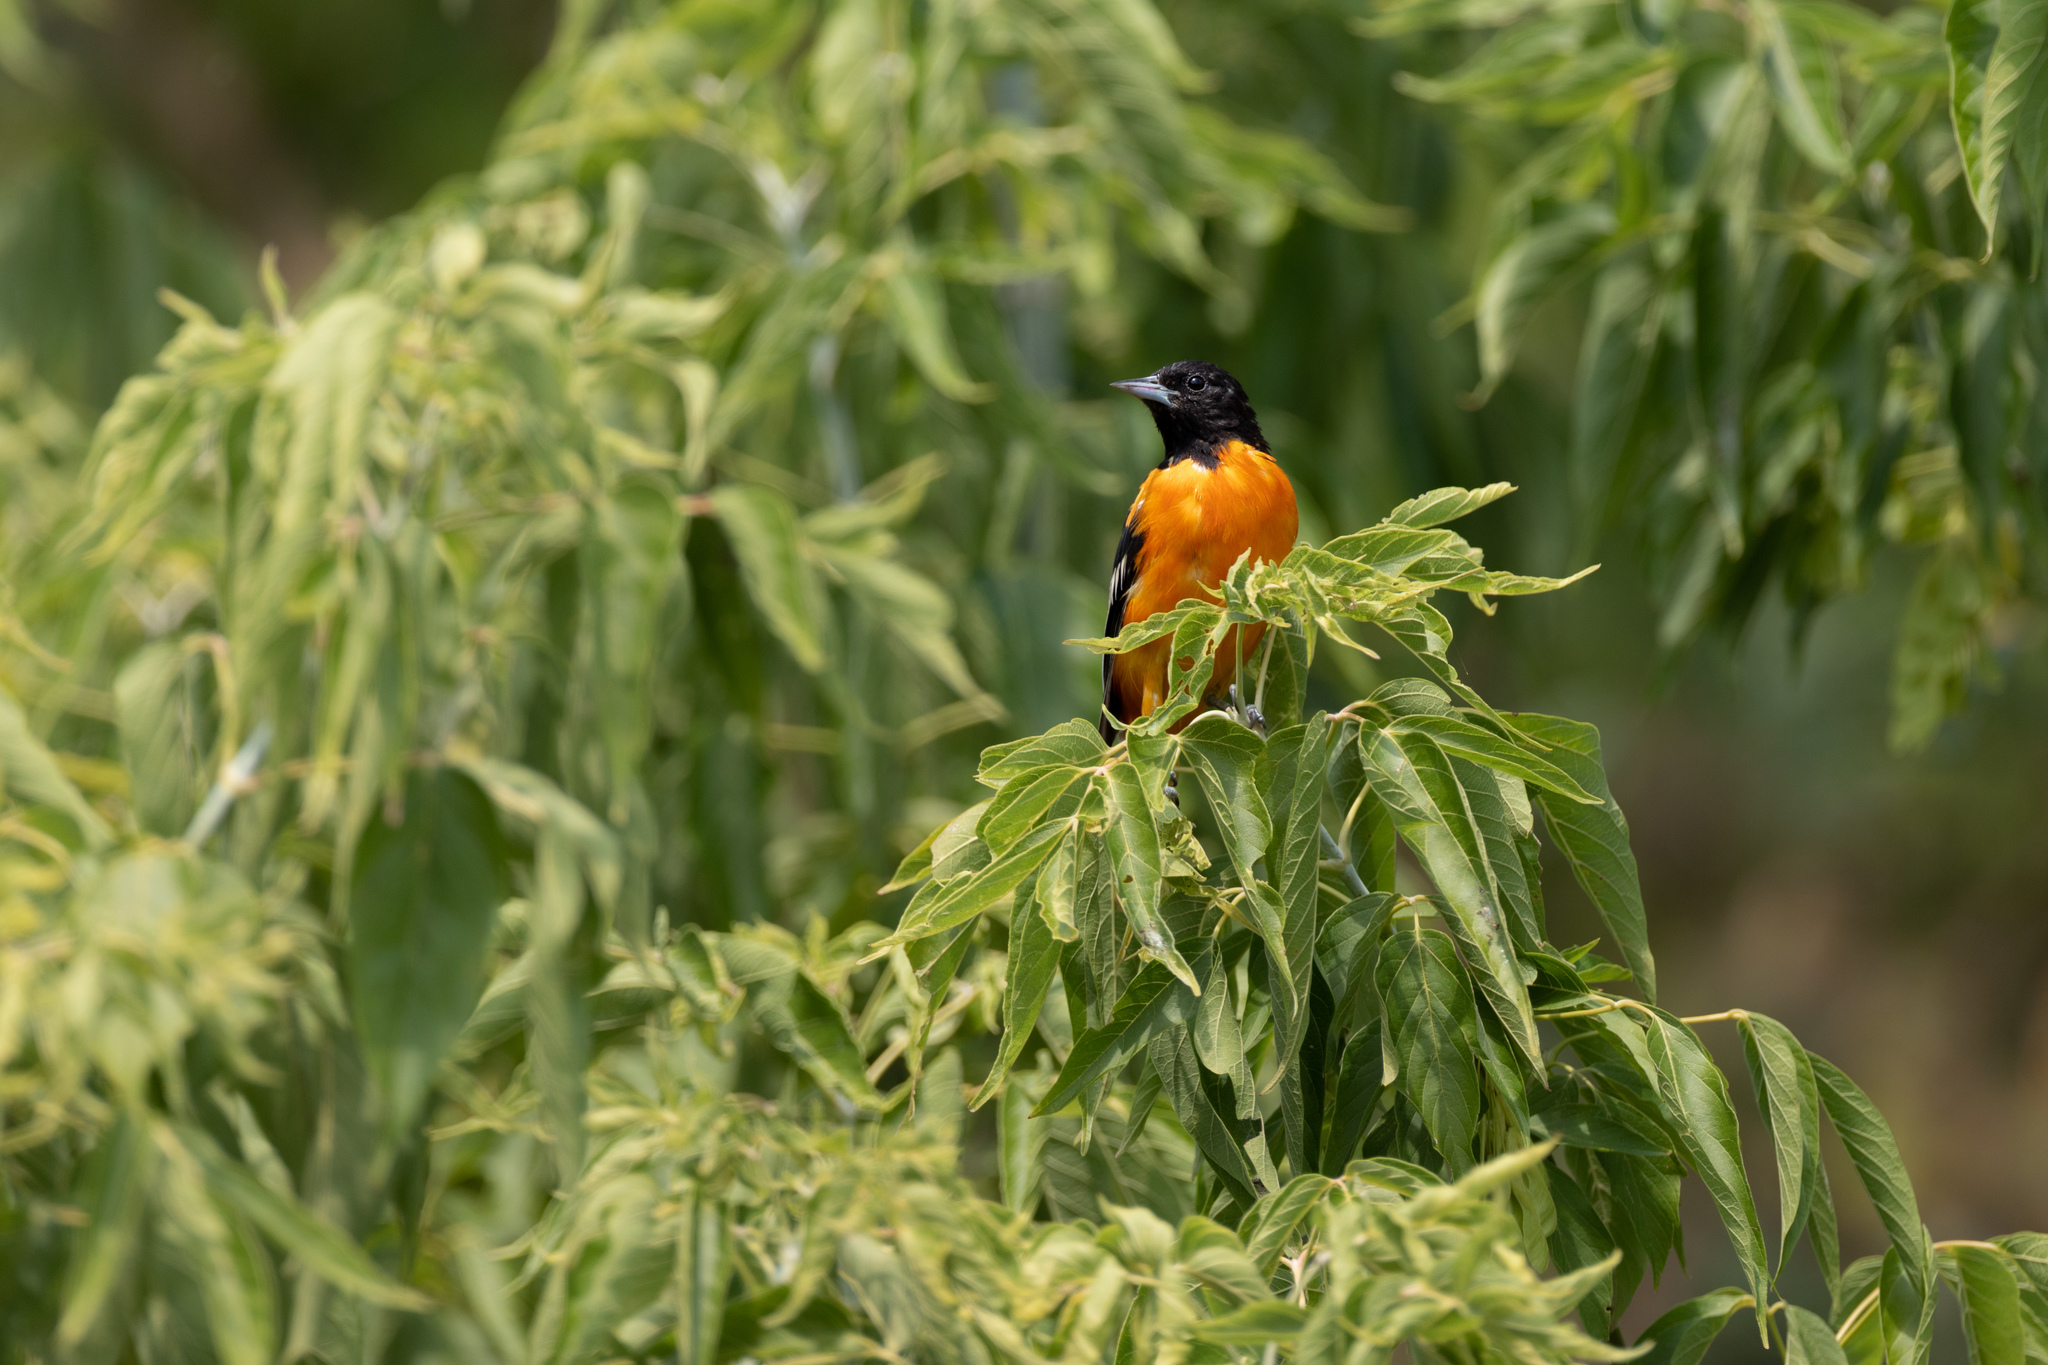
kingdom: Animalia
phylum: Chordata
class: Aves
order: Passeriformes
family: Icteridae
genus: Icterus
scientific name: Icterus galbula
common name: Baltimore oriole
